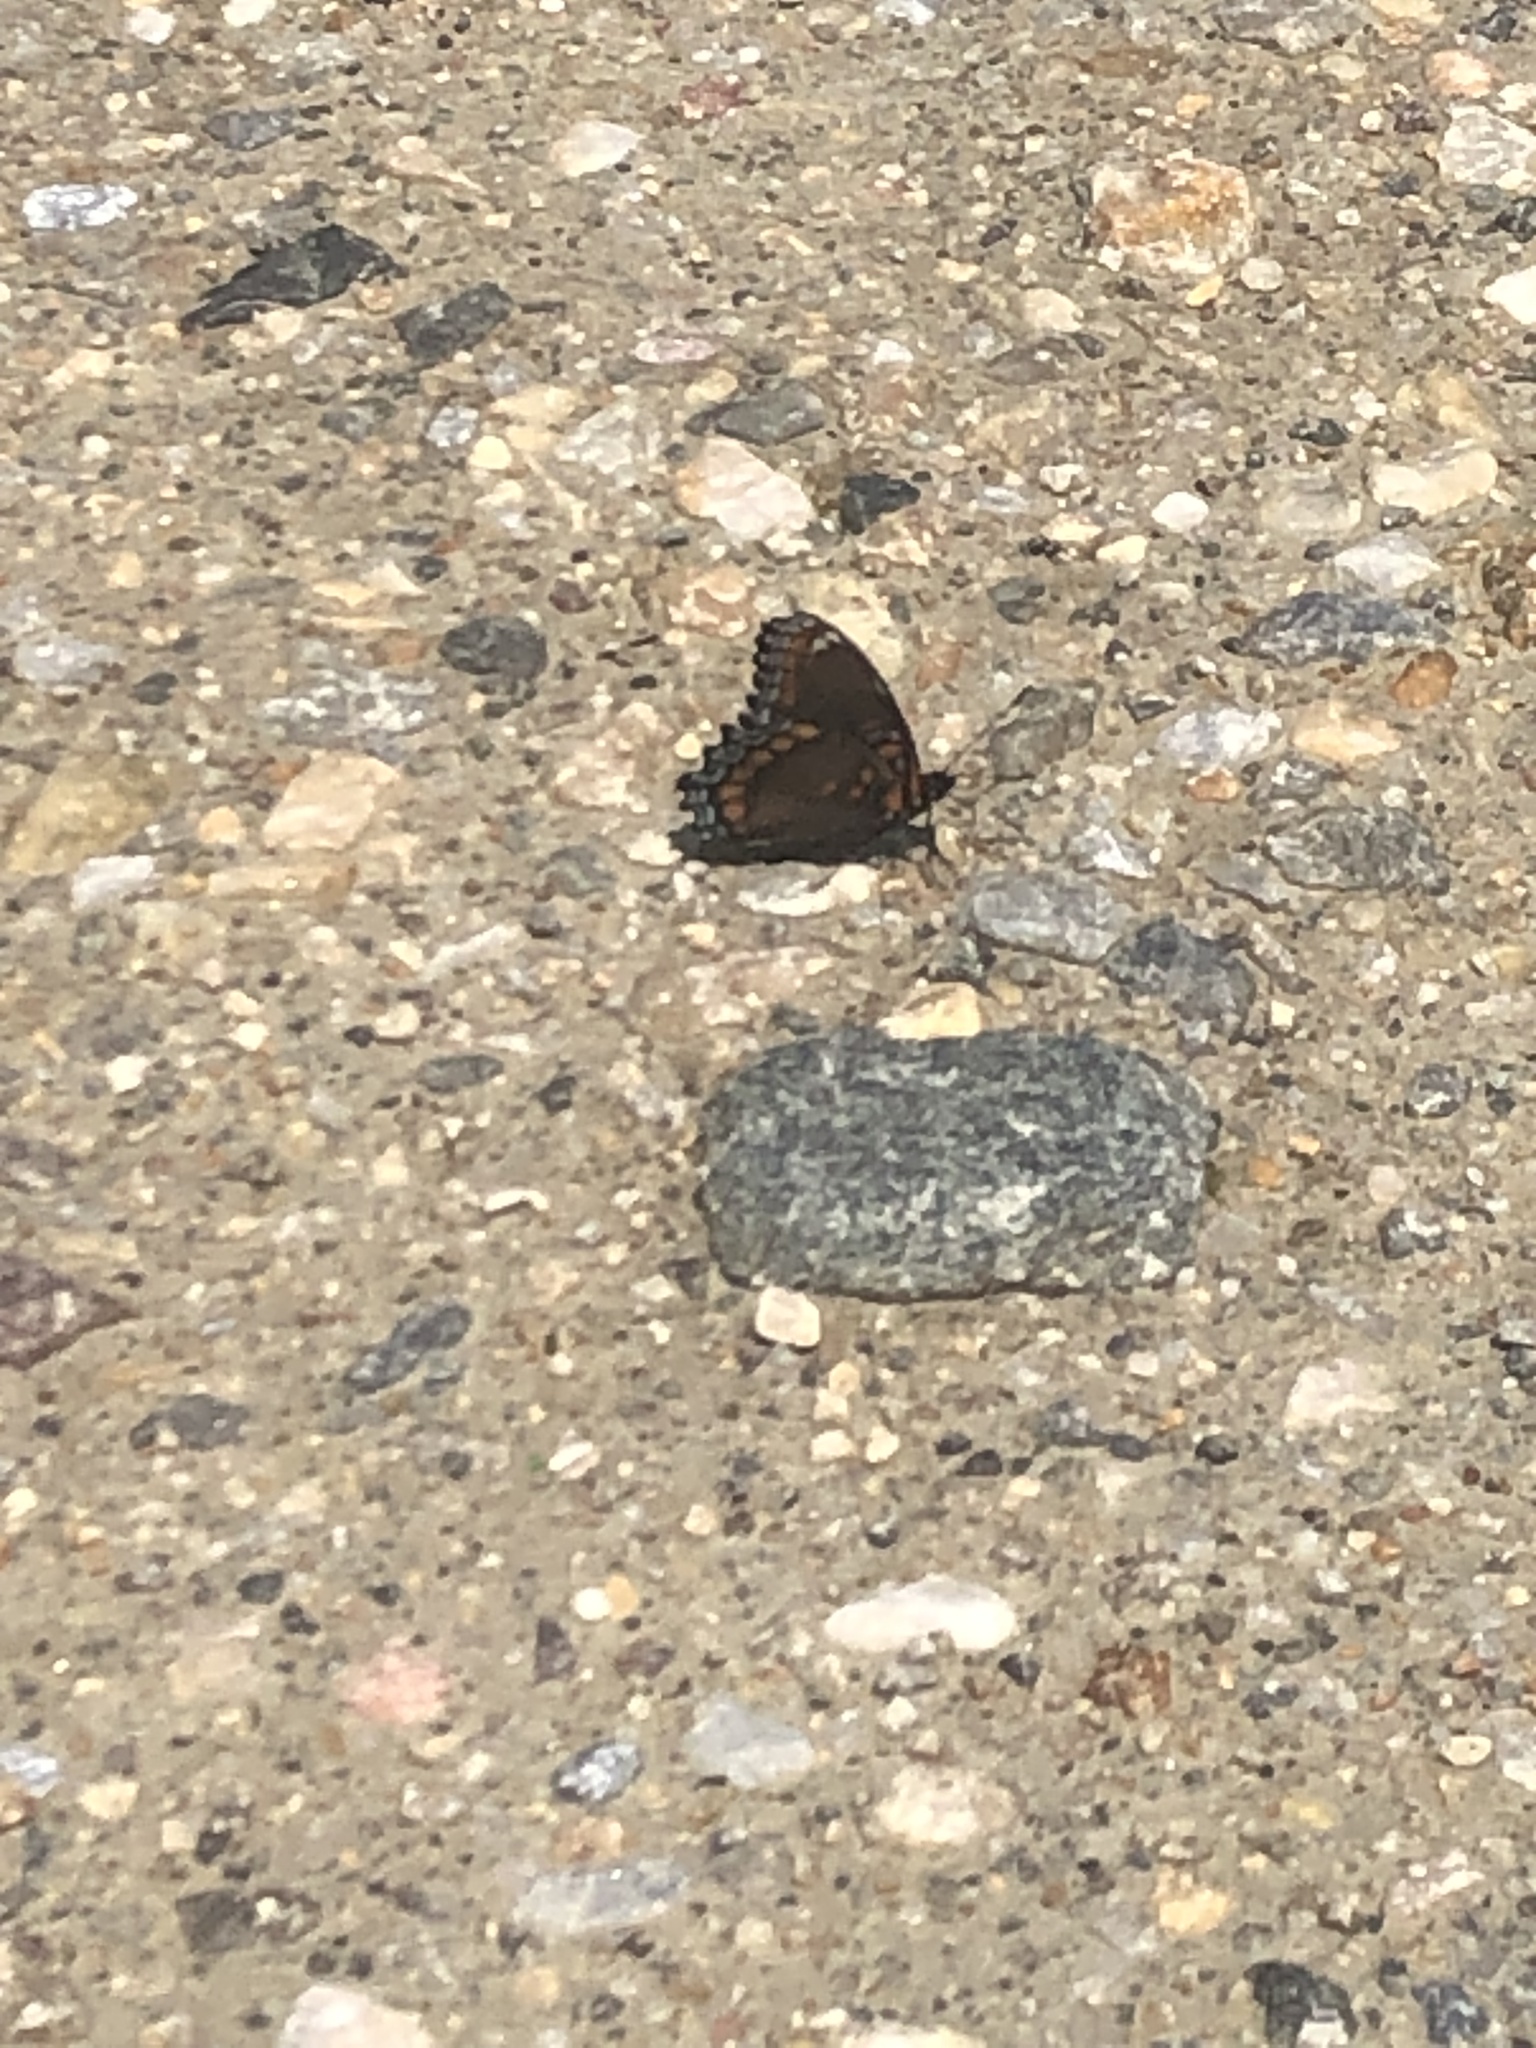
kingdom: Animalia
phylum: Arthropoda
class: Insecta
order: Lepidoptera
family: Nymphalidae
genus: Limenitis
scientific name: Limenitis arthemis
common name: Red-spotted admiral
